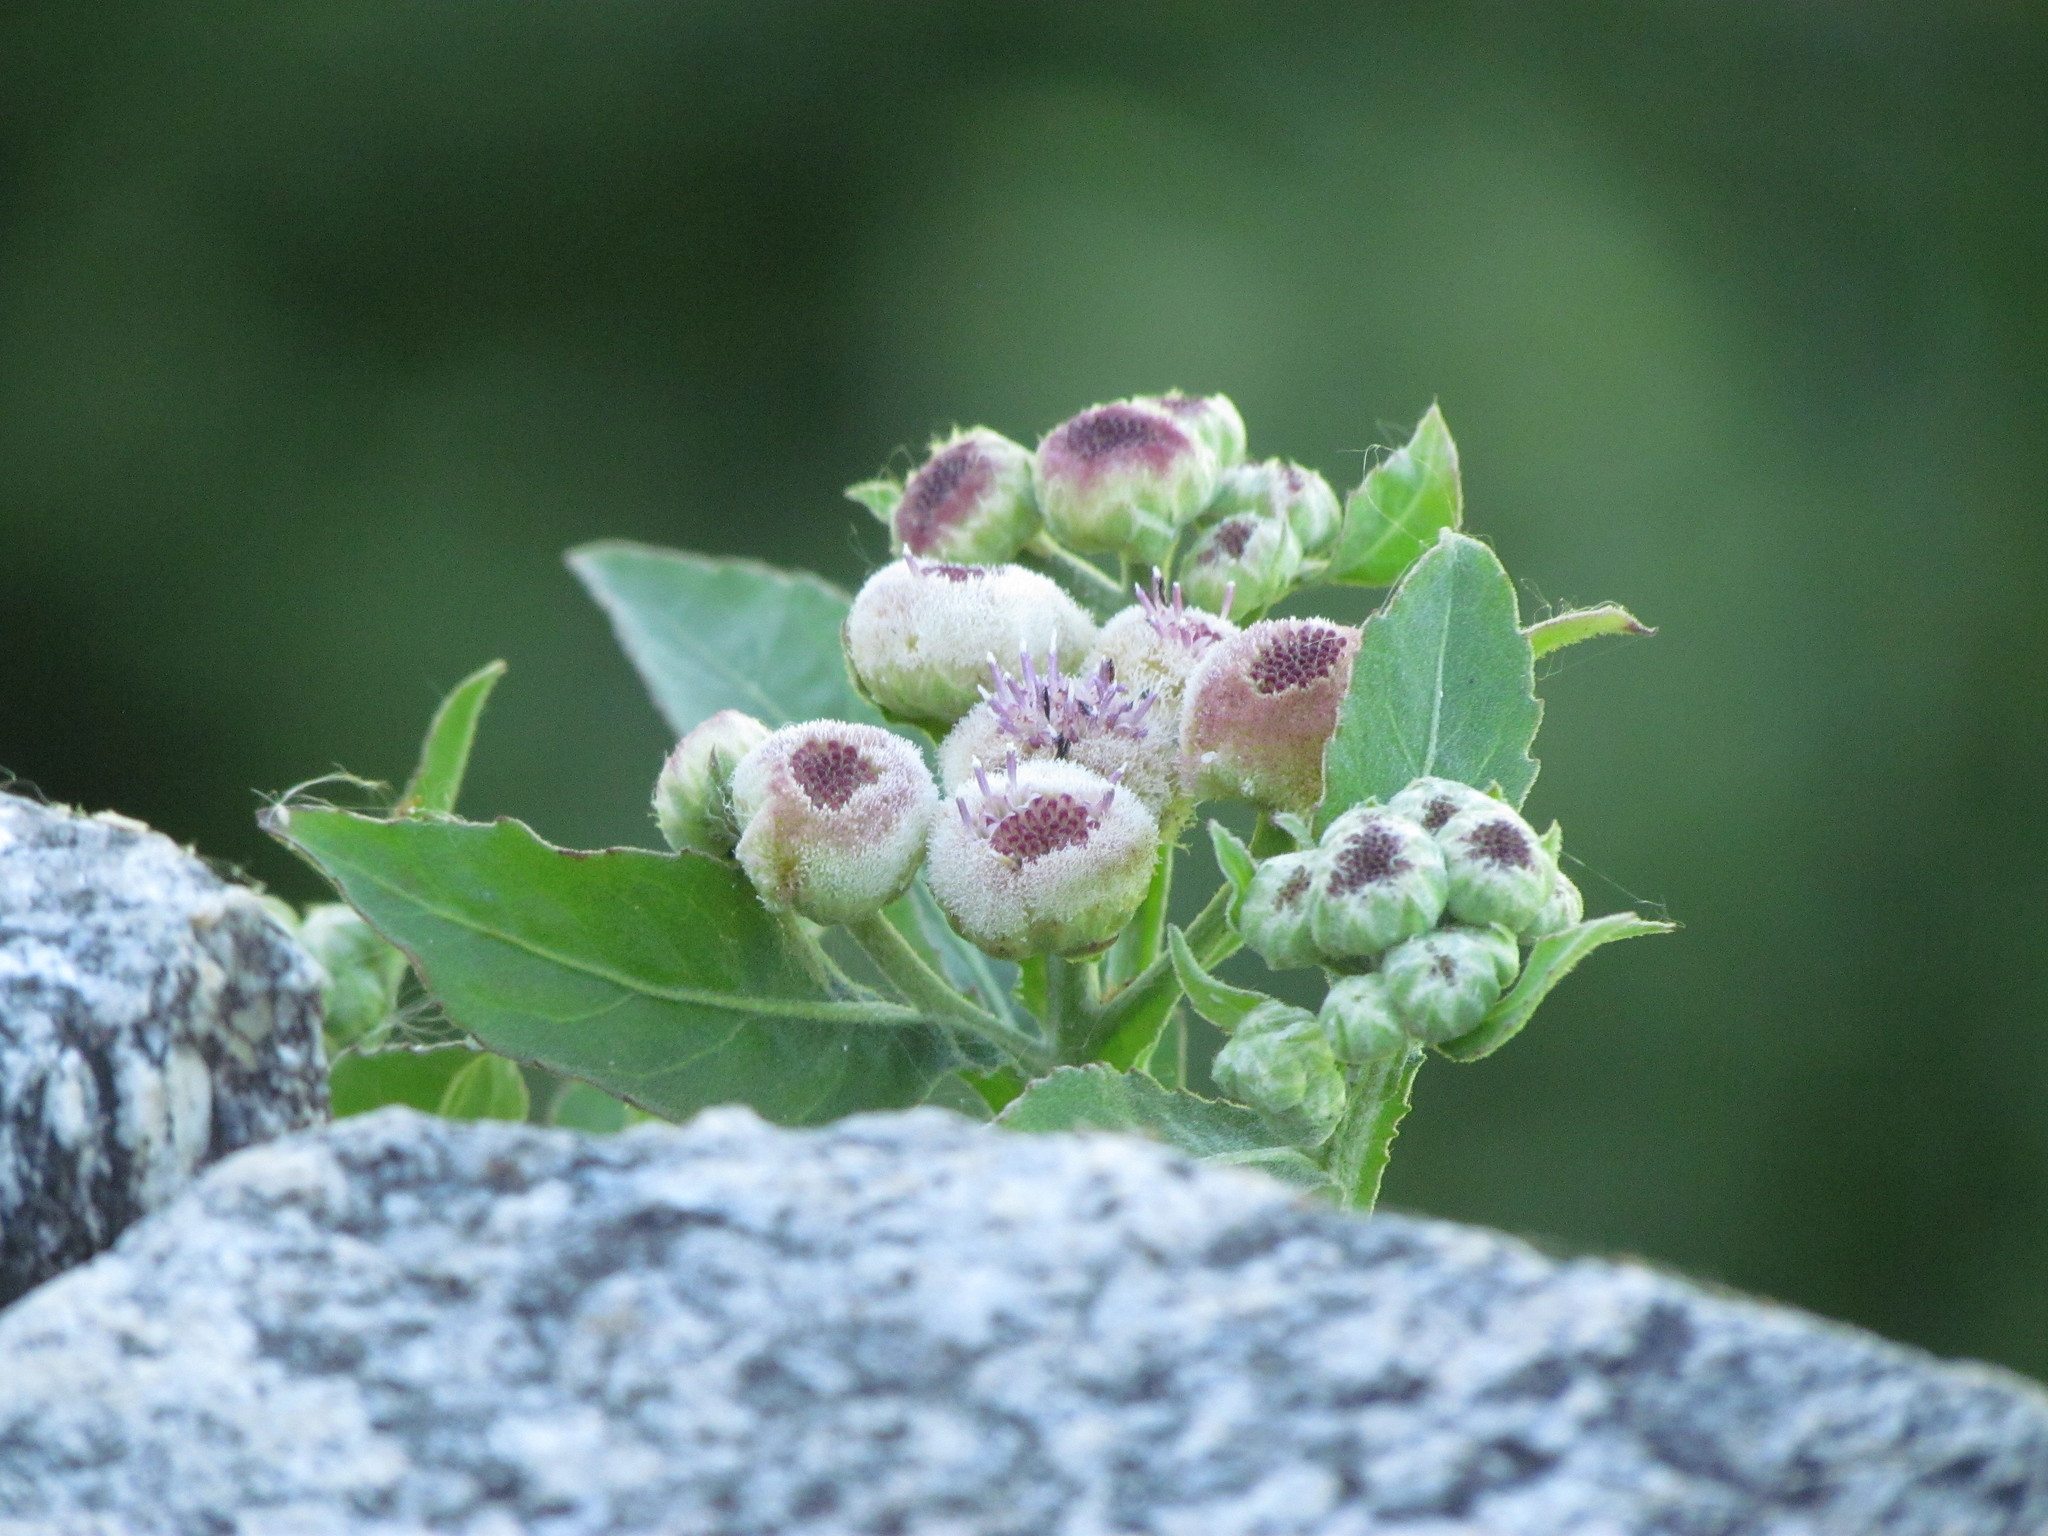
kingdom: Plantae
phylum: Tracheophyta
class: Magnoliopsida
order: Asterales
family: Asteraceae
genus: Pluchea
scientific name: Pluchea sagittalis
